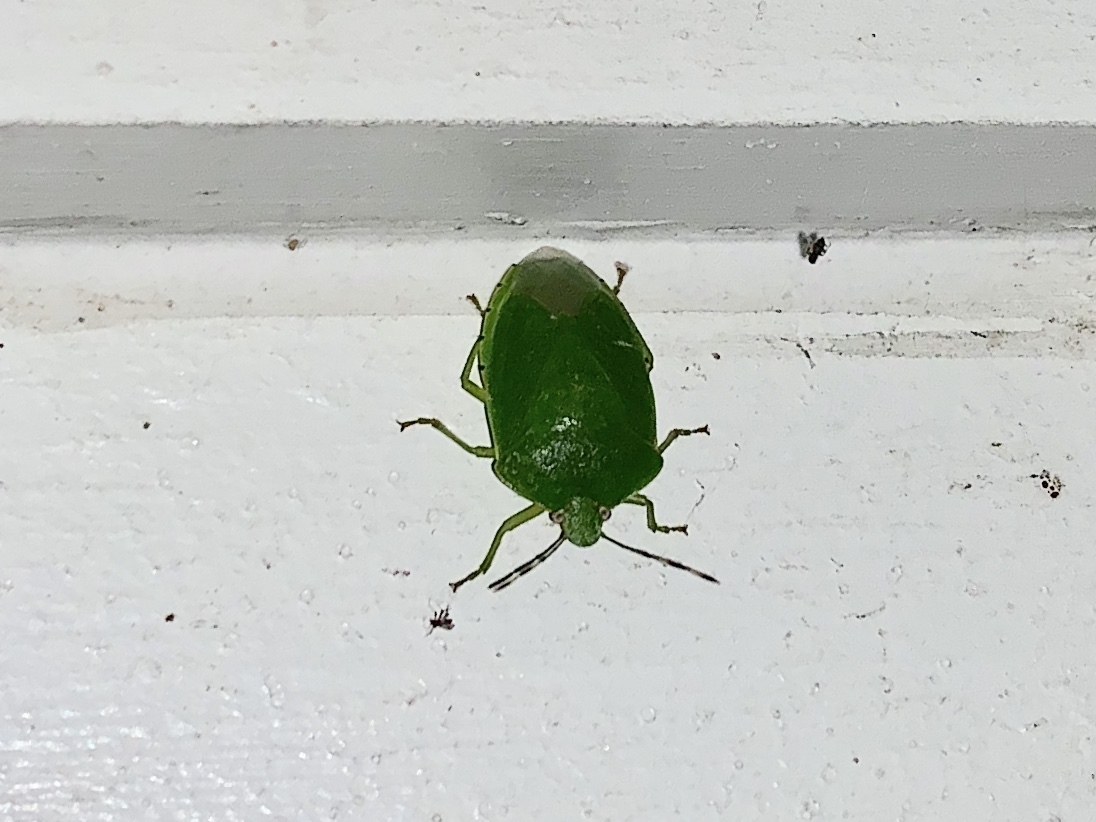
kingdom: Animalia
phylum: Arthropoda
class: Insecta
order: Hemiptera
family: Pentatomidae
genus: Chinavia
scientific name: Chinavia hilaris
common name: Green stink bug
